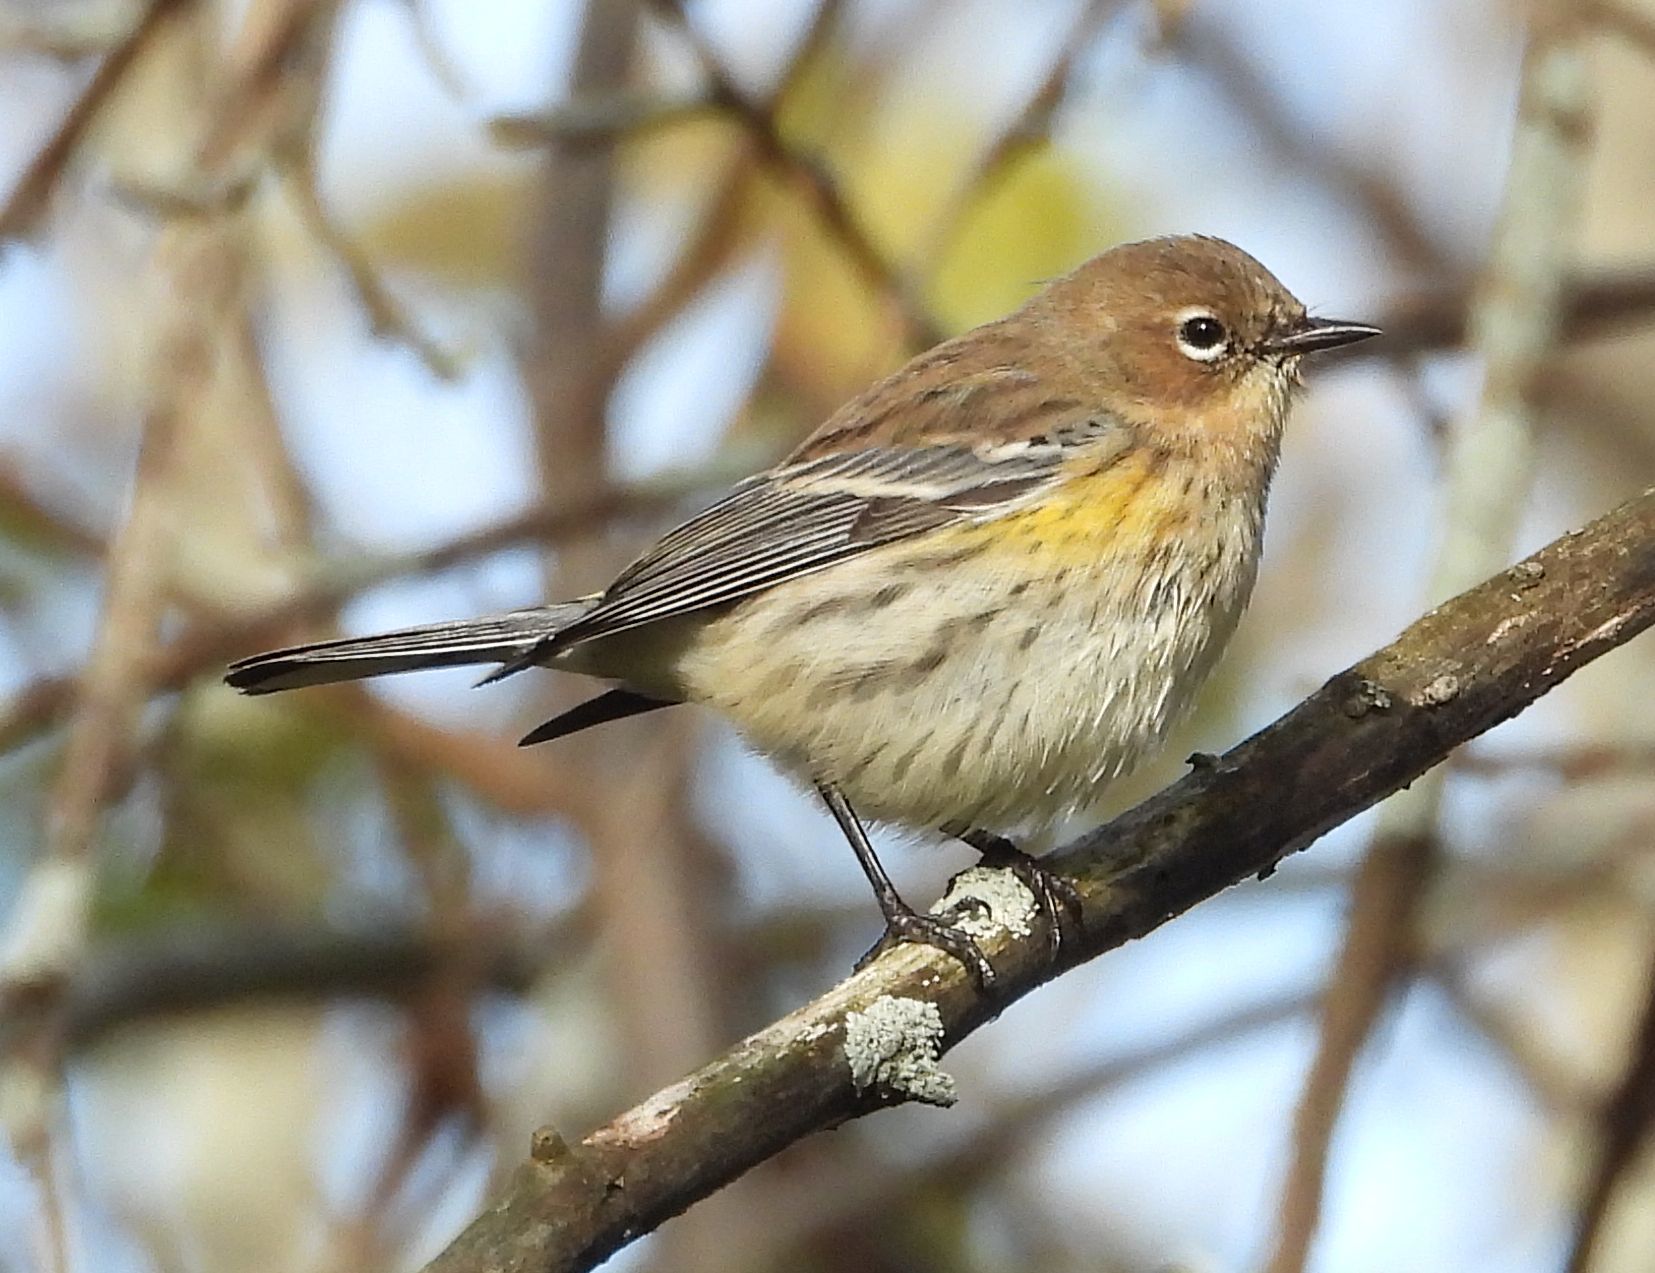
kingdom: Animalia
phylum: Chordata
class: Aves
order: Passeriformes
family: Parulidae
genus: Setophaga
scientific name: Setophaga coronata
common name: Myrtle warbler
